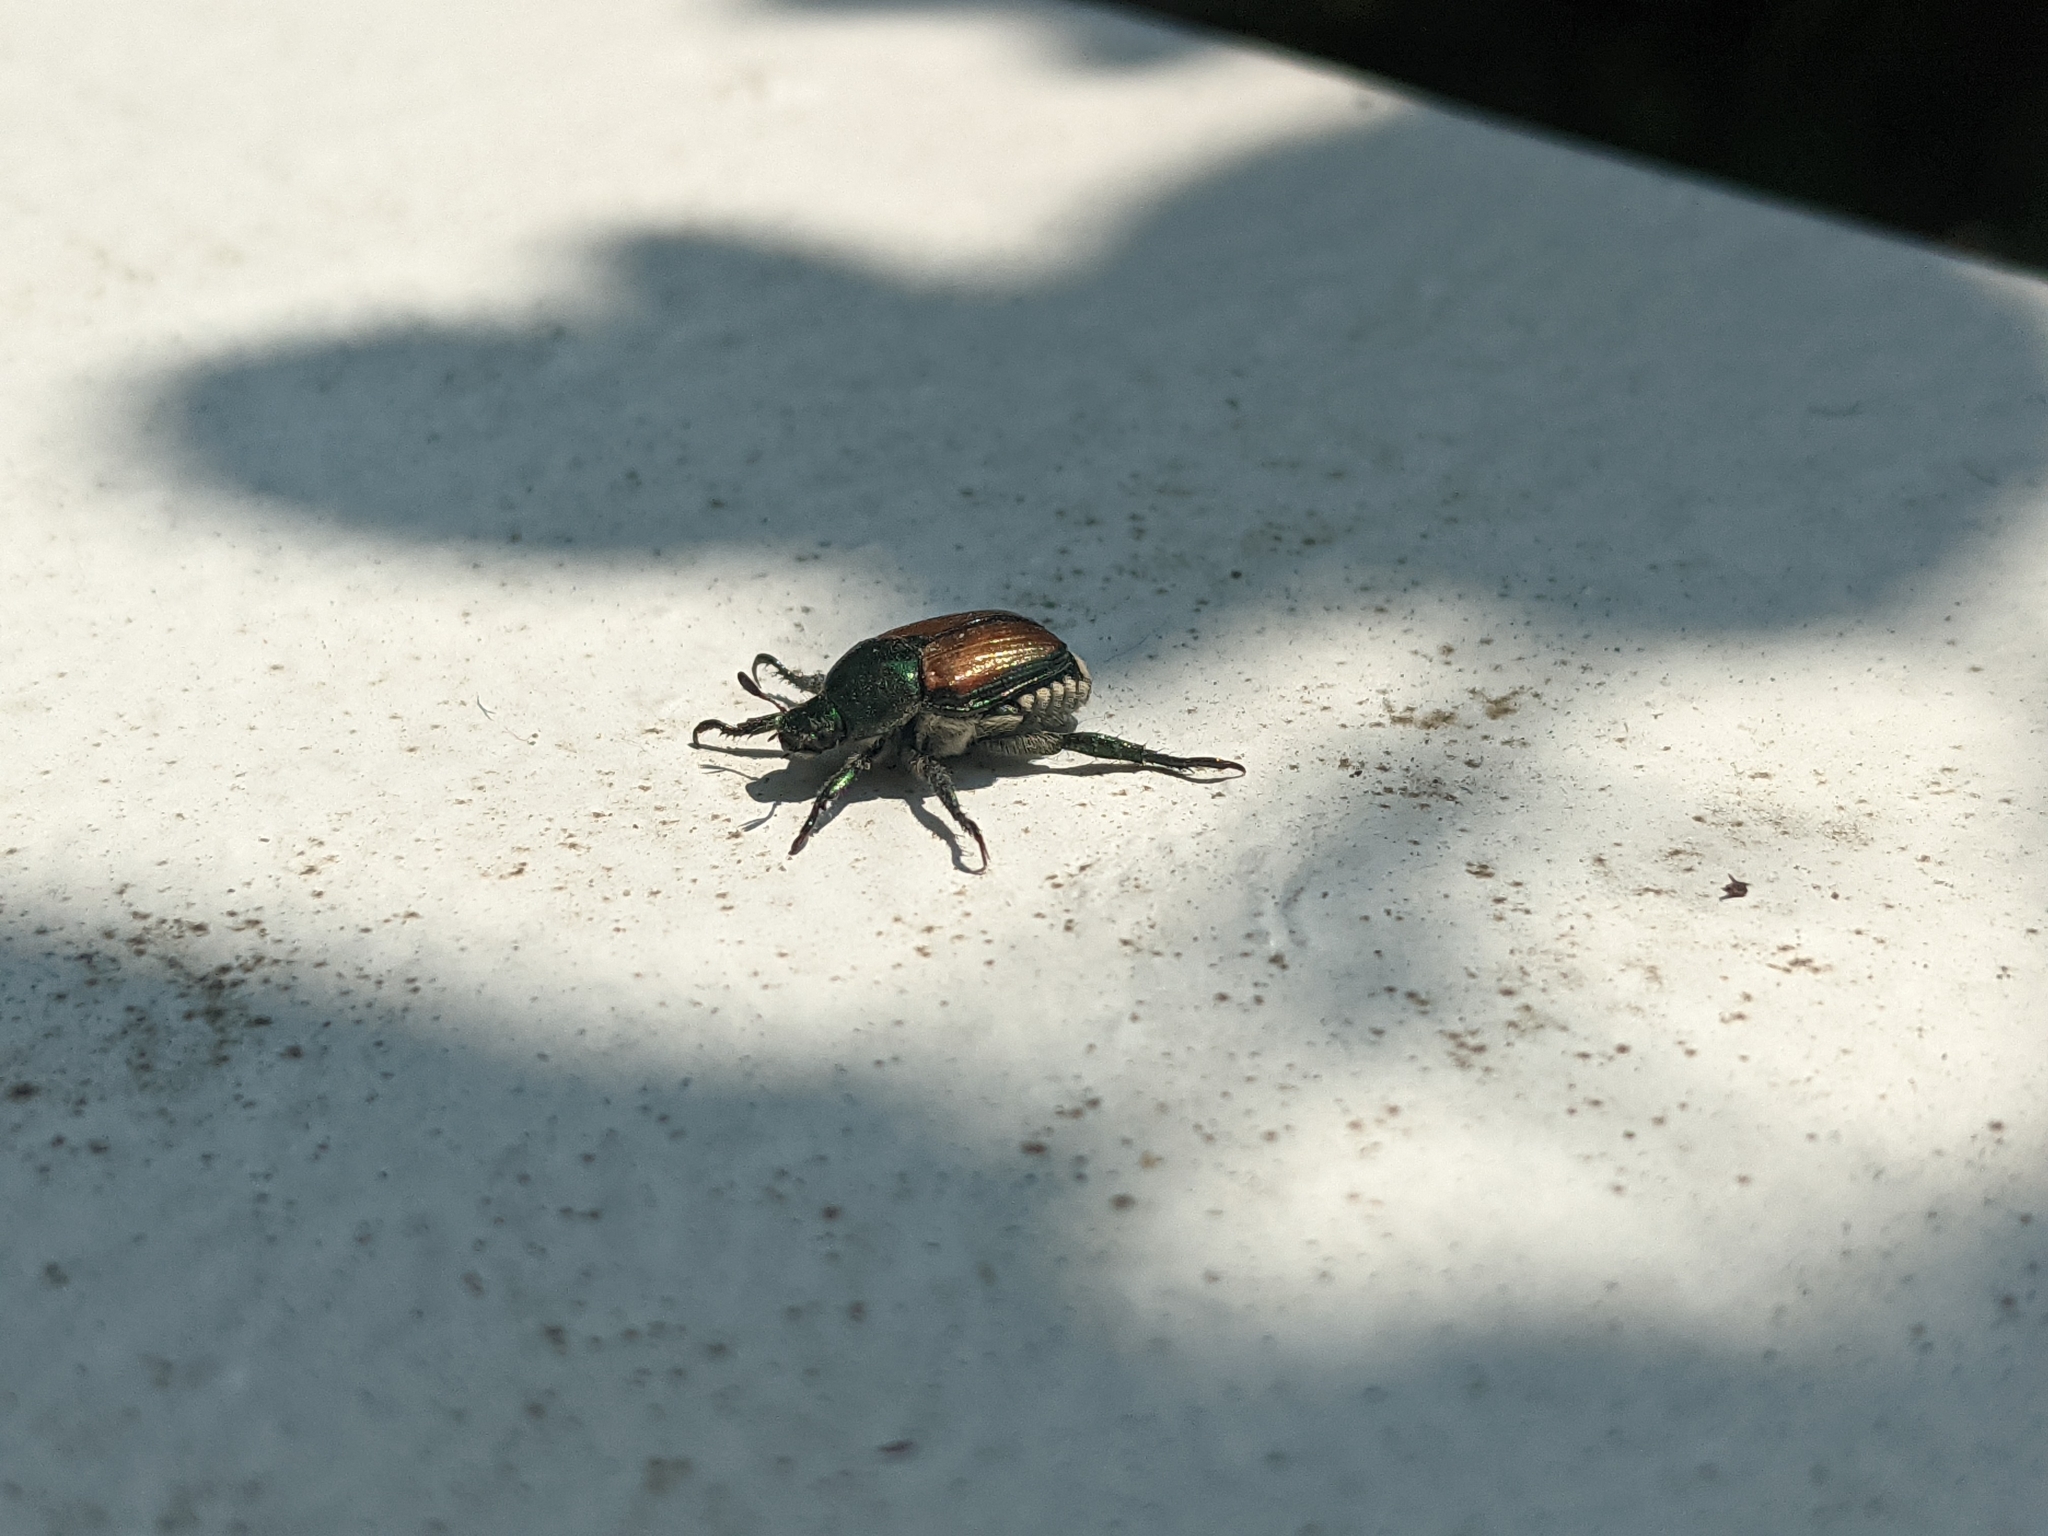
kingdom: Animalia
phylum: Arthropoda
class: Insecta
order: Coleoptera
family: Scarabaeidae
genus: Popillia
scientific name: Popillia japonica
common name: Japanese beetle
